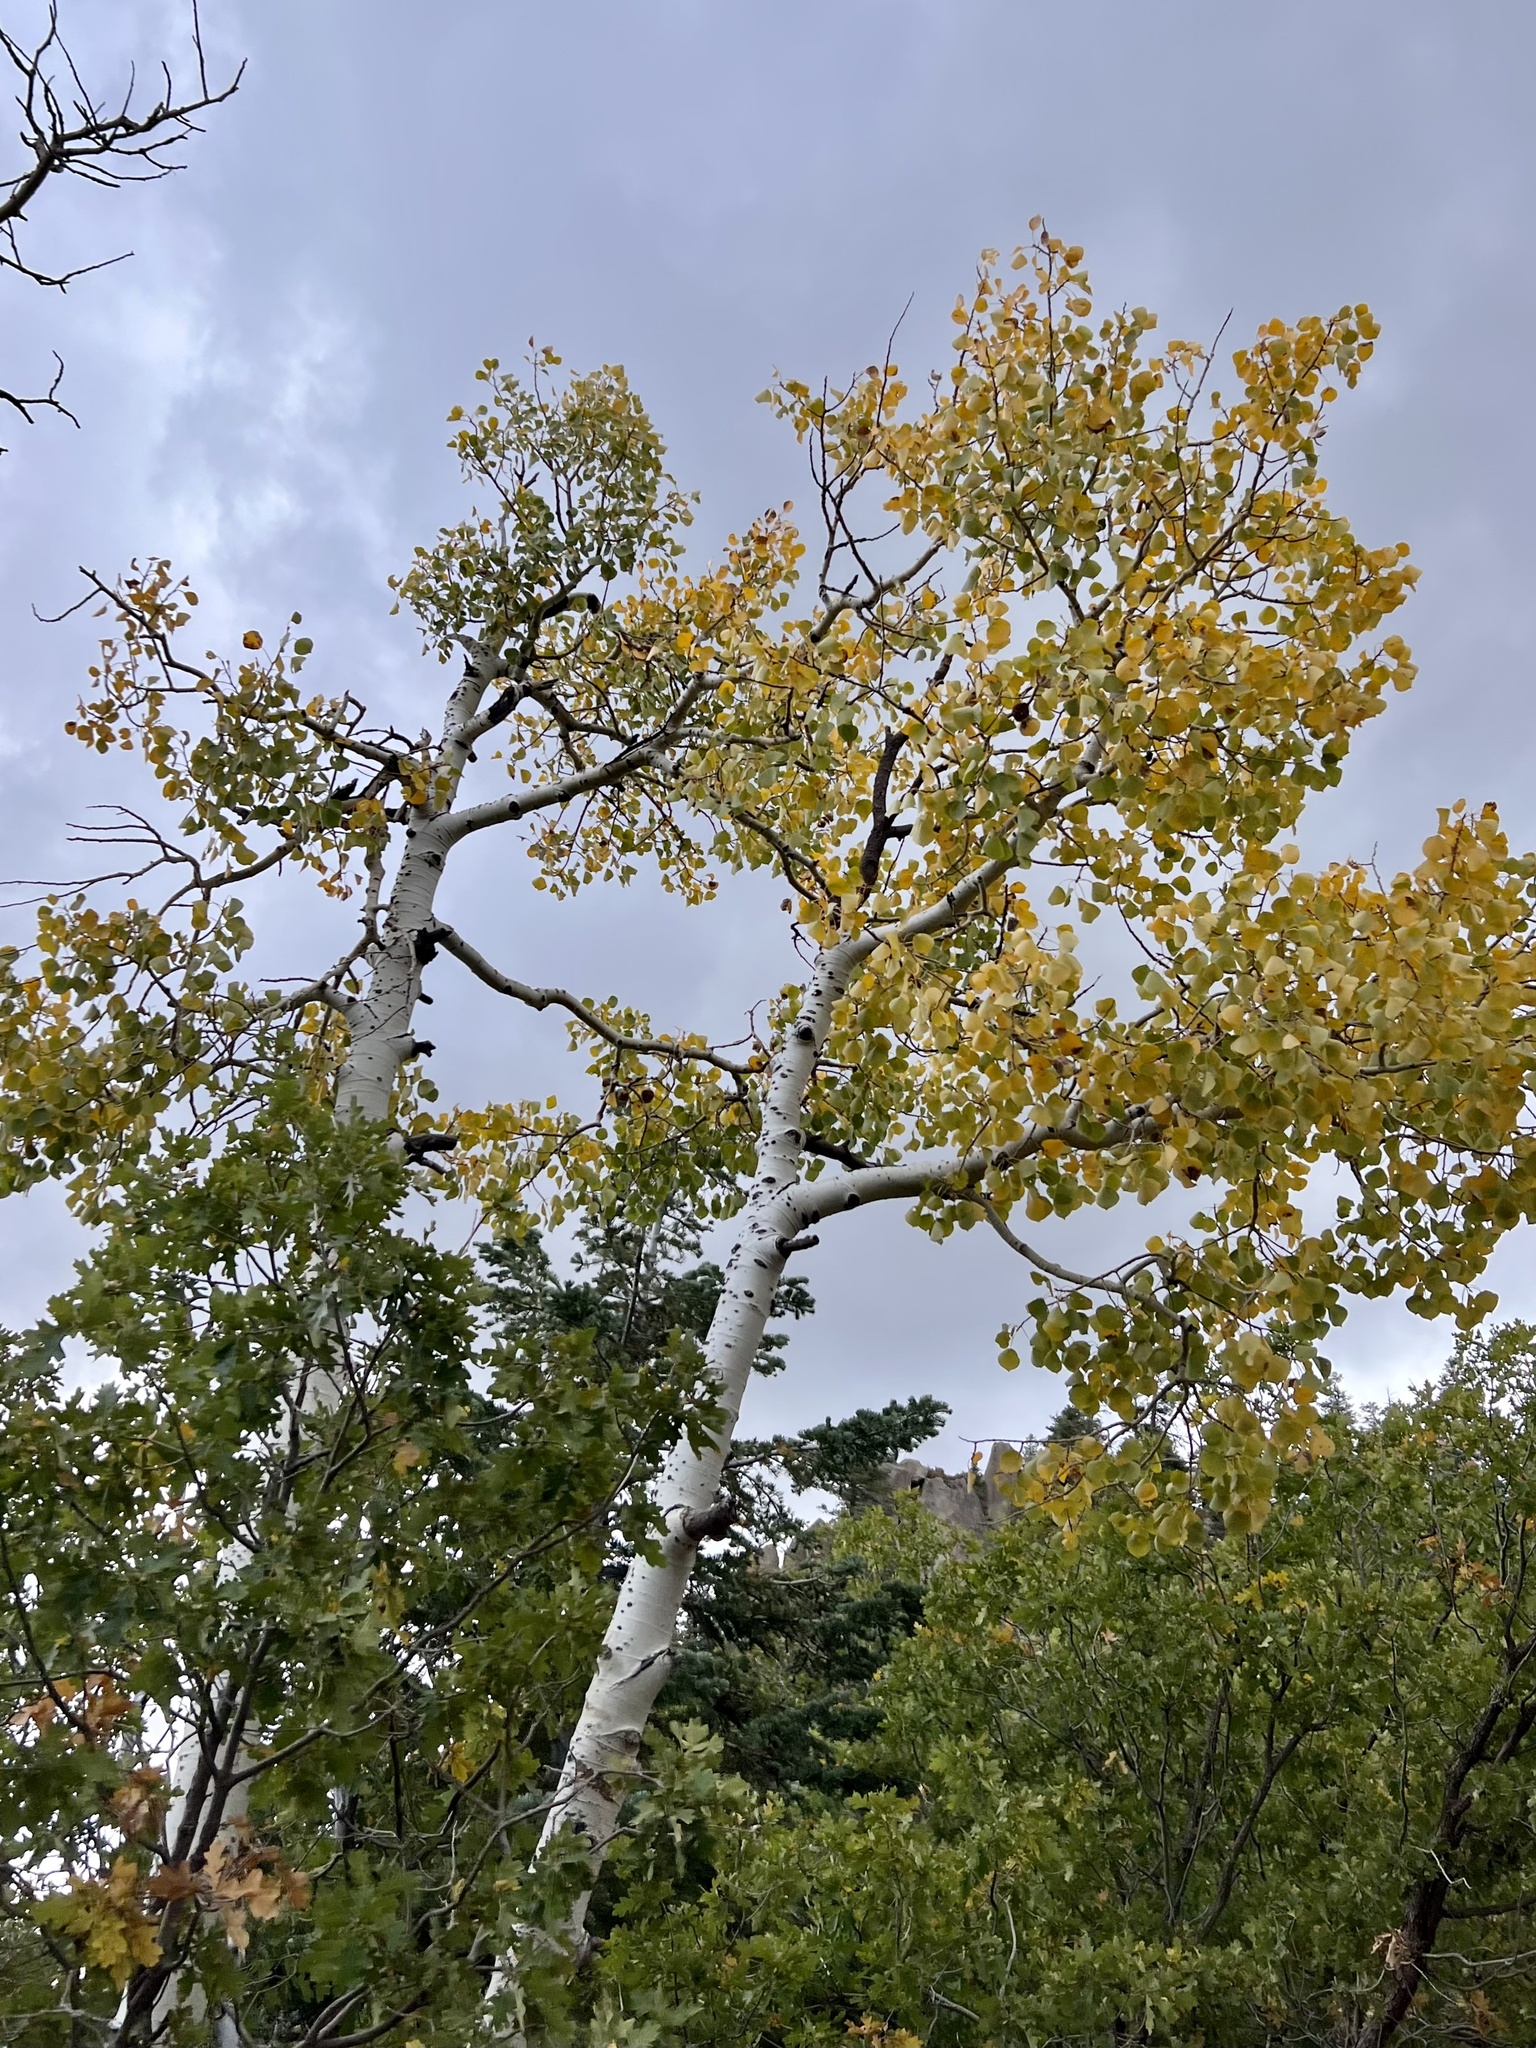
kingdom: Plantae
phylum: Tracheophyta
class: Magnoliopsida
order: Malpighiales
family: Salicaceae
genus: Populus
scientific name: Populus tremuloides
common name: Quaking aspen
